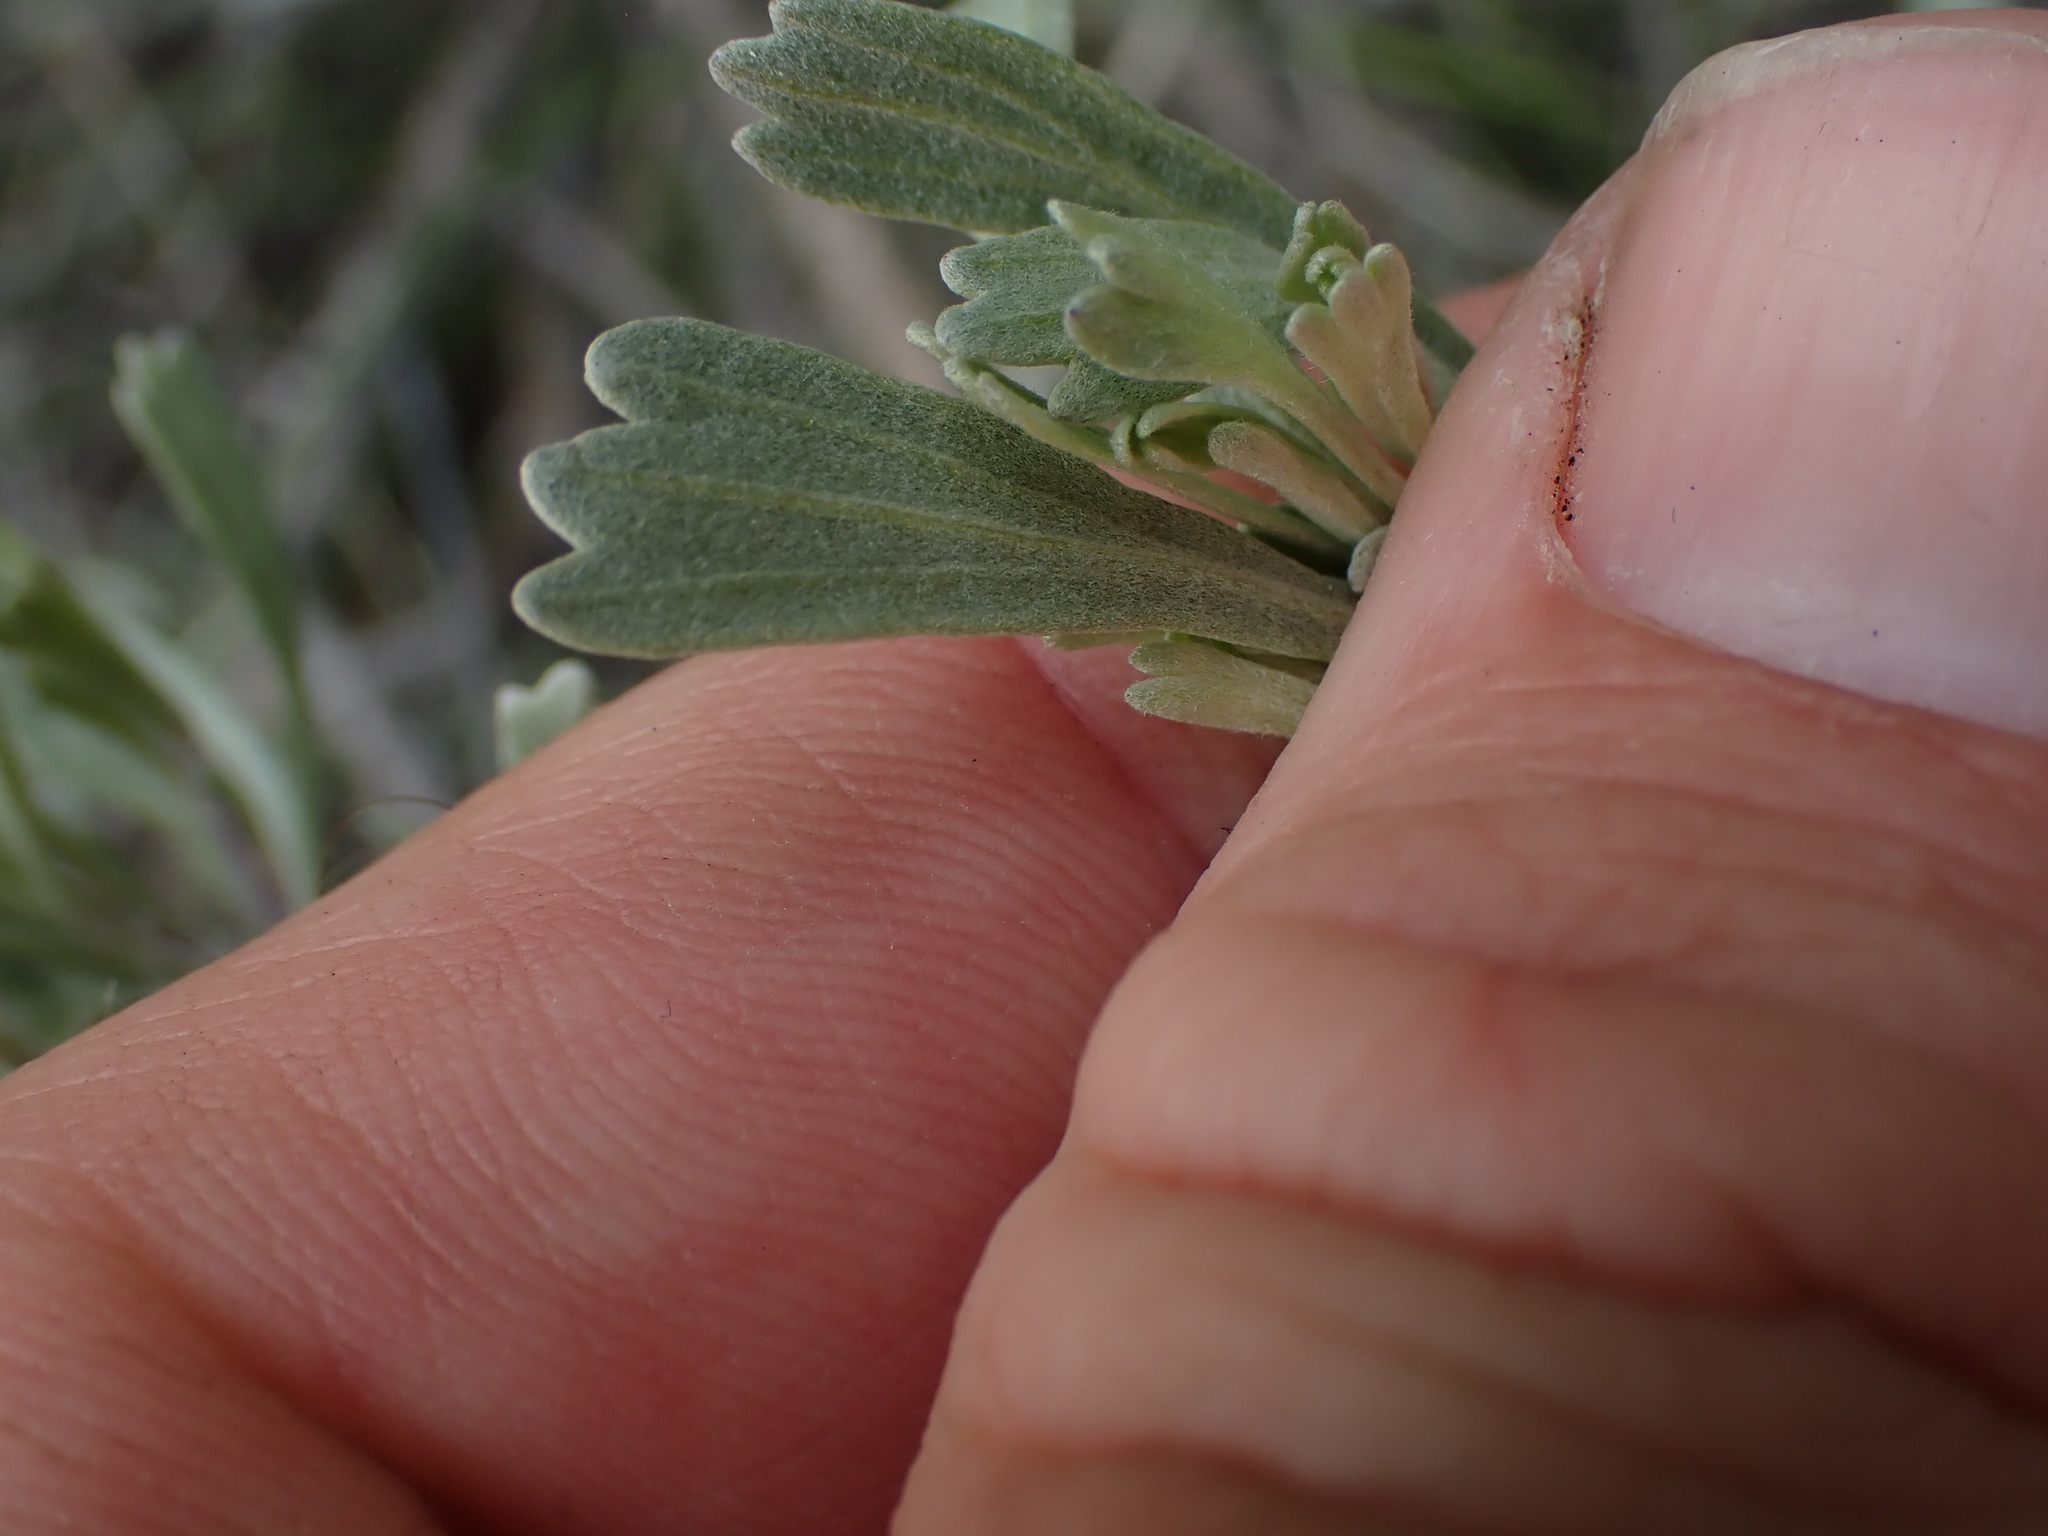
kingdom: Plantae
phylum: Tracheophyta
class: Magnoliopsida
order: Asterales
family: Asteraceae
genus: Artemisia
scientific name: Artemisia tridentata
